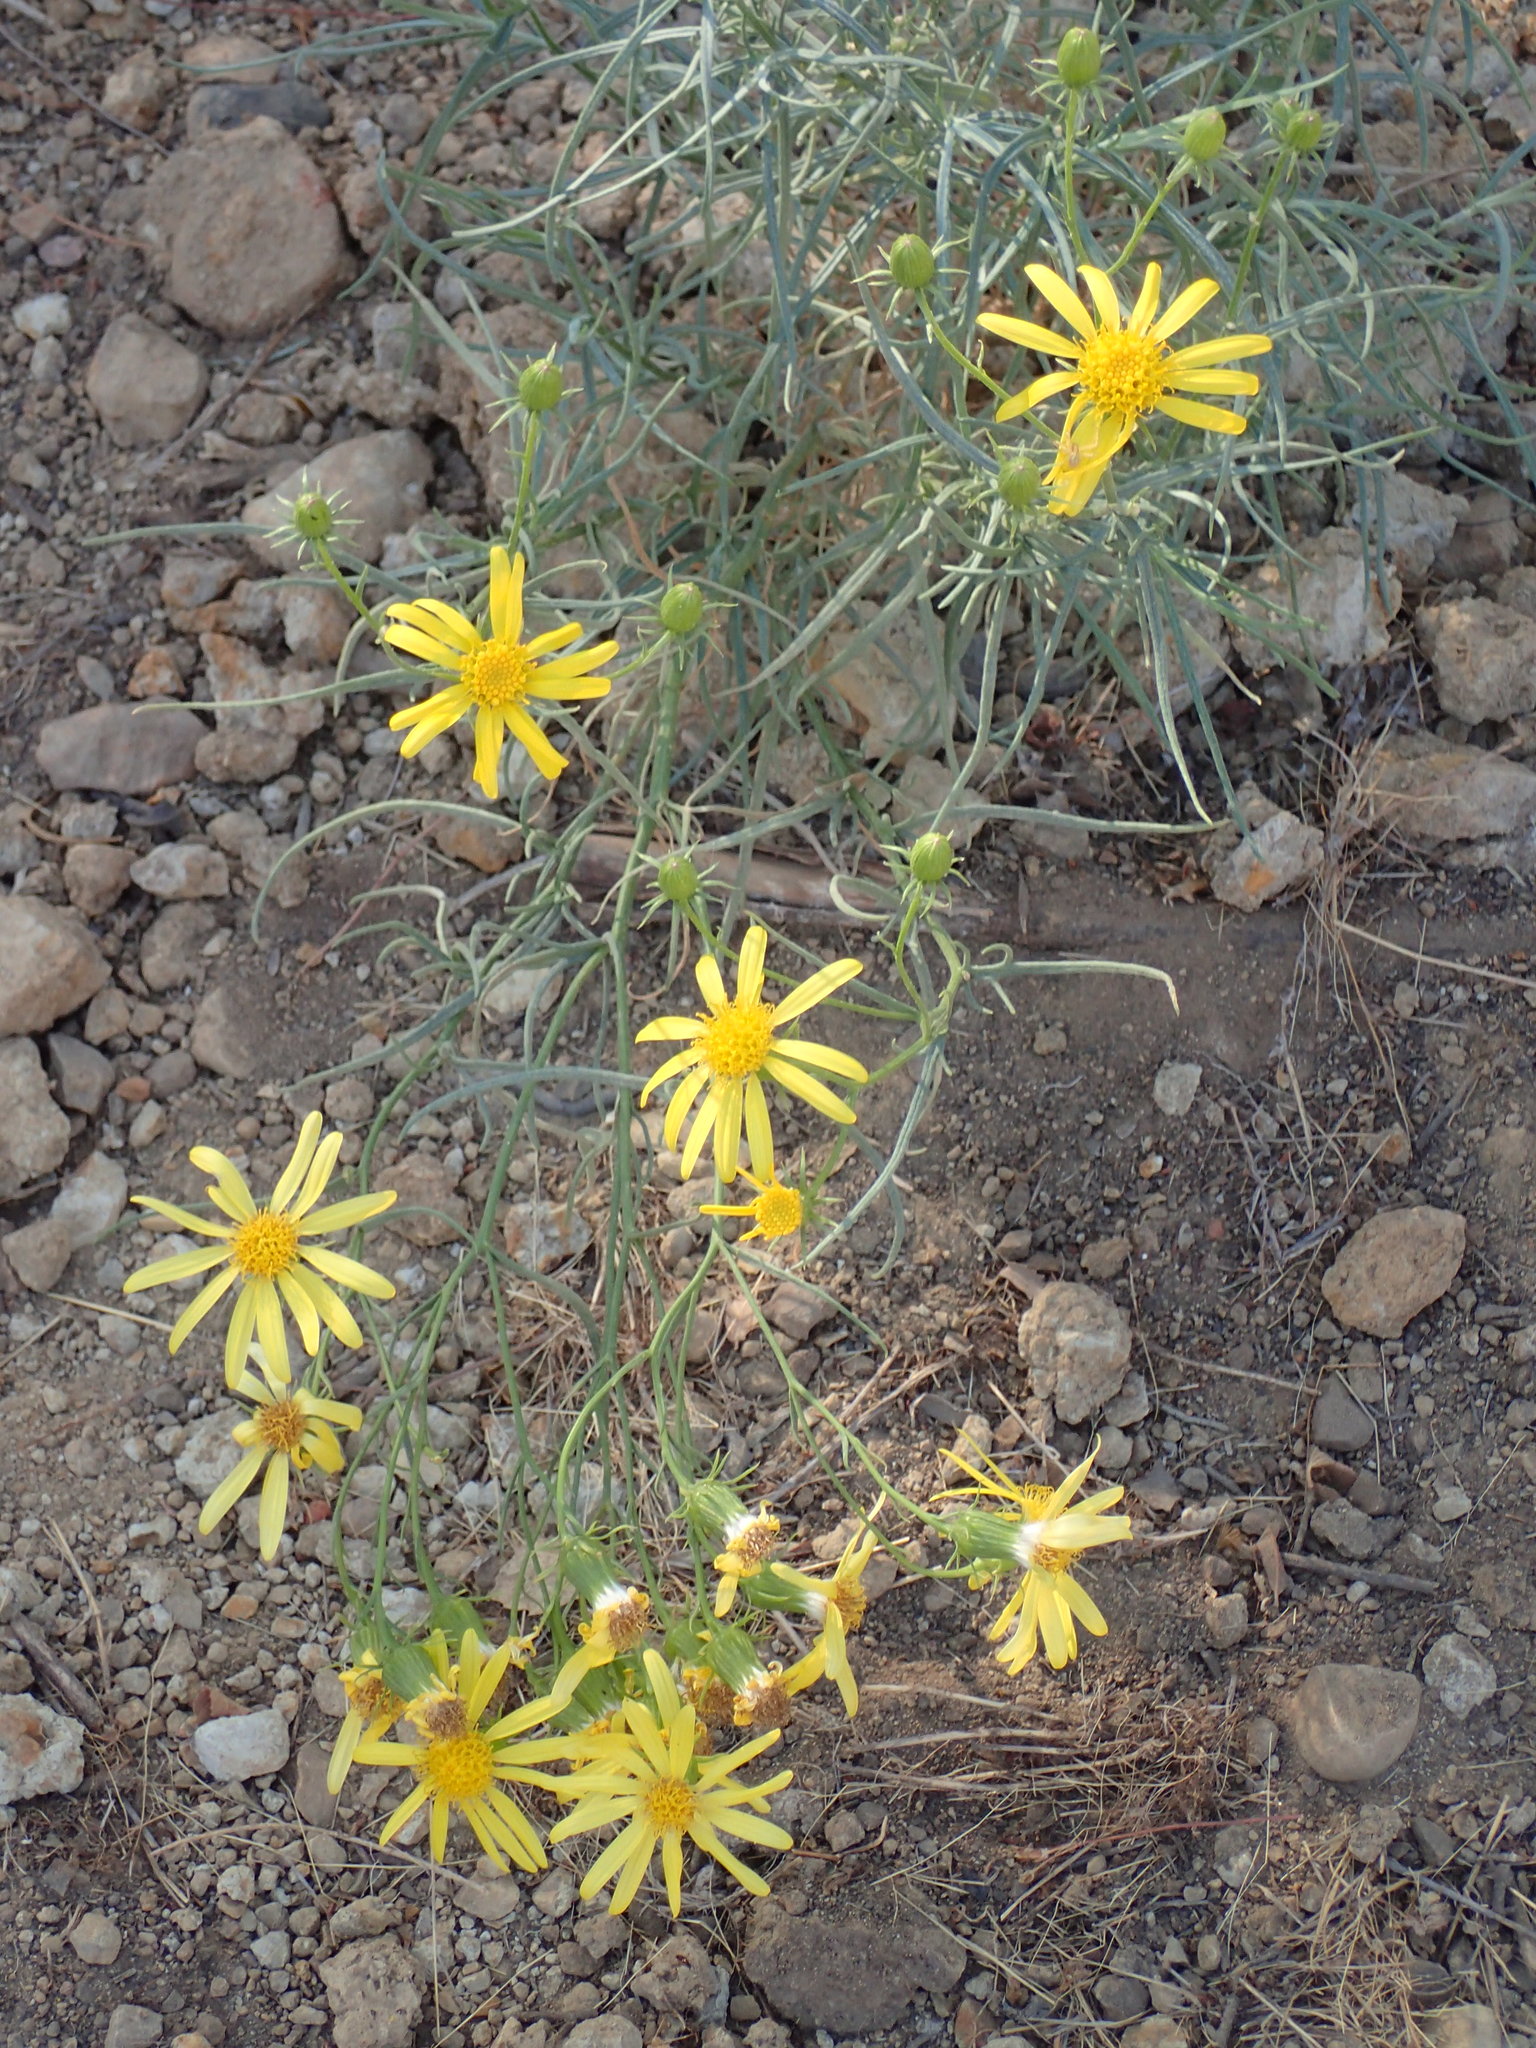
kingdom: Plantae
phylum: Tracheophyta
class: Magnoliopsida
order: Asterales
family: Asteraceae
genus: Senecio
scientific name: Senecio flaccidus
